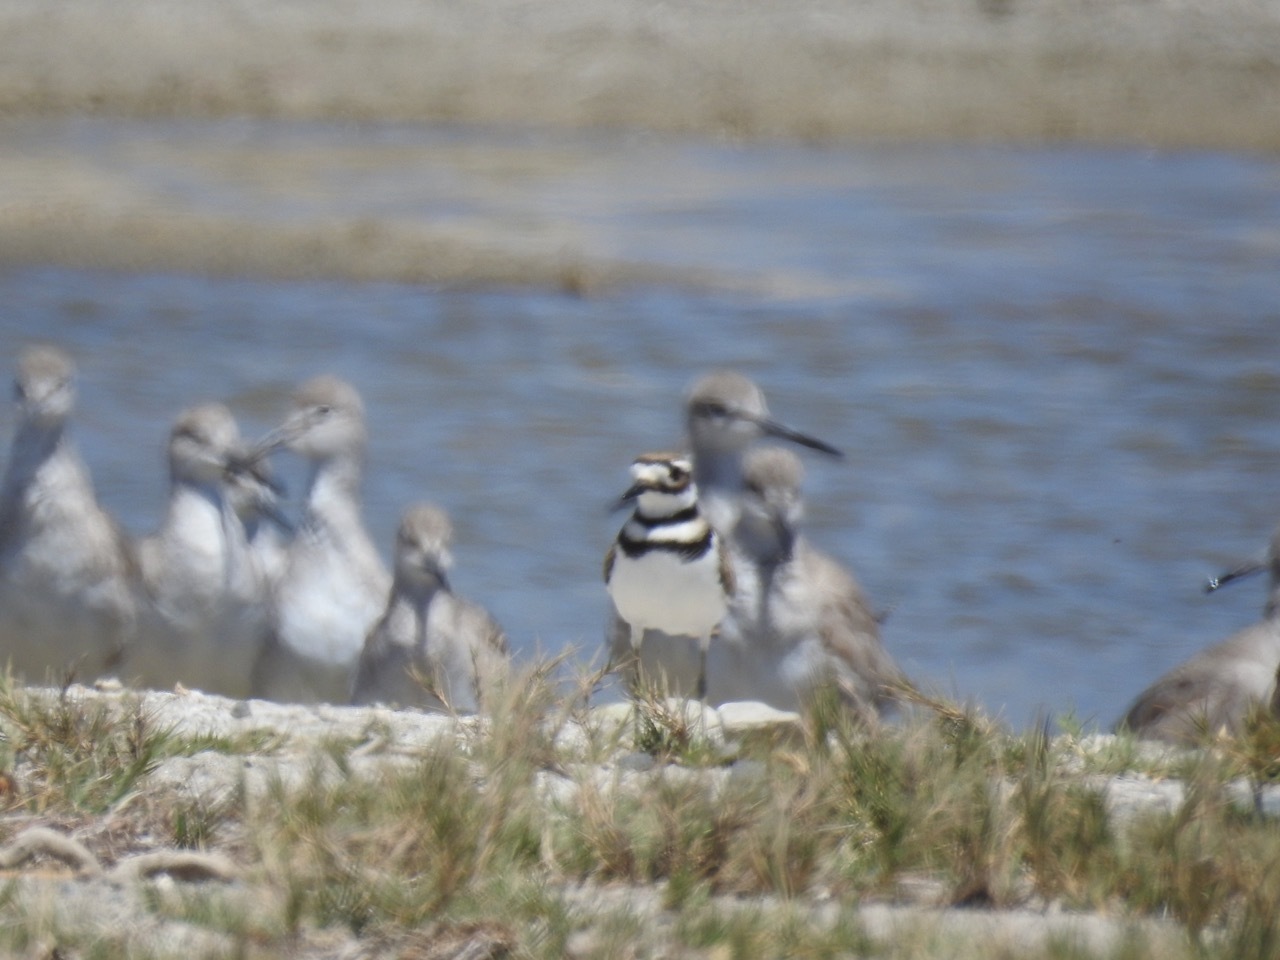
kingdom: Animalia
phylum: Chordata
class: Aves
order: Charadriiformes
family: Charadriidae
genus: Charadrius
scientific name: Charadrius vociferus
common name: Killdeer
